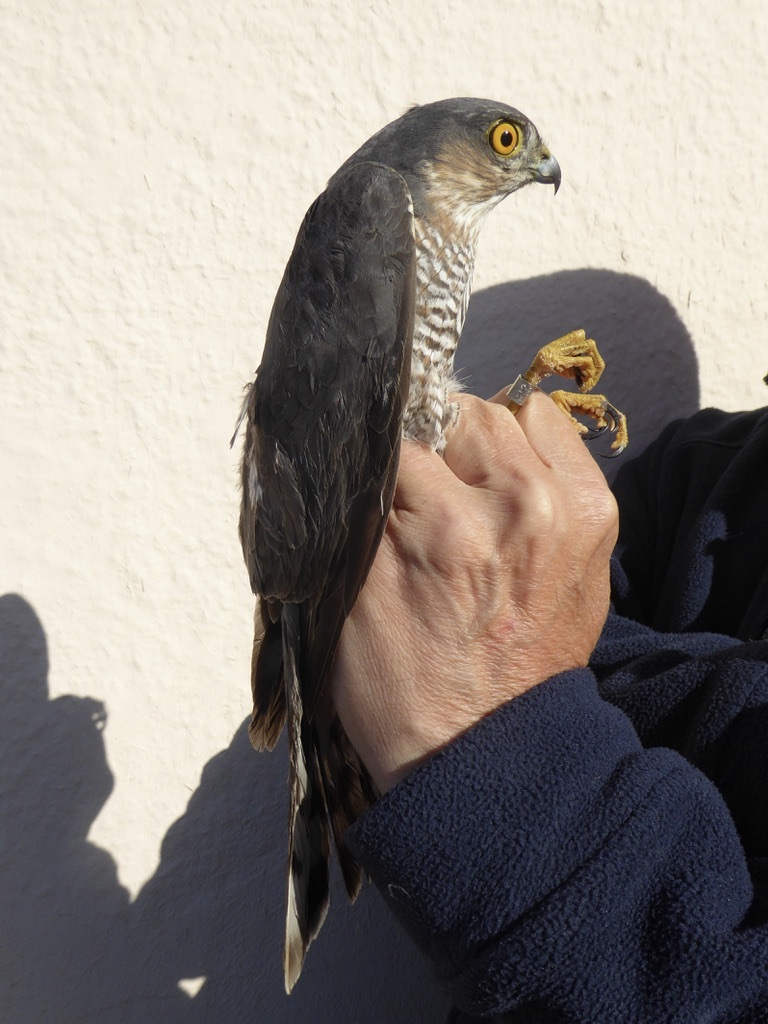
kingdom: Animalia
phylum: Chordata
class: Aves
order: Accipitriformes
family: Accipitridae
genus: Accipiter
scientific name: Accipiter nisus
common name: Eurasian sparrowhawk
